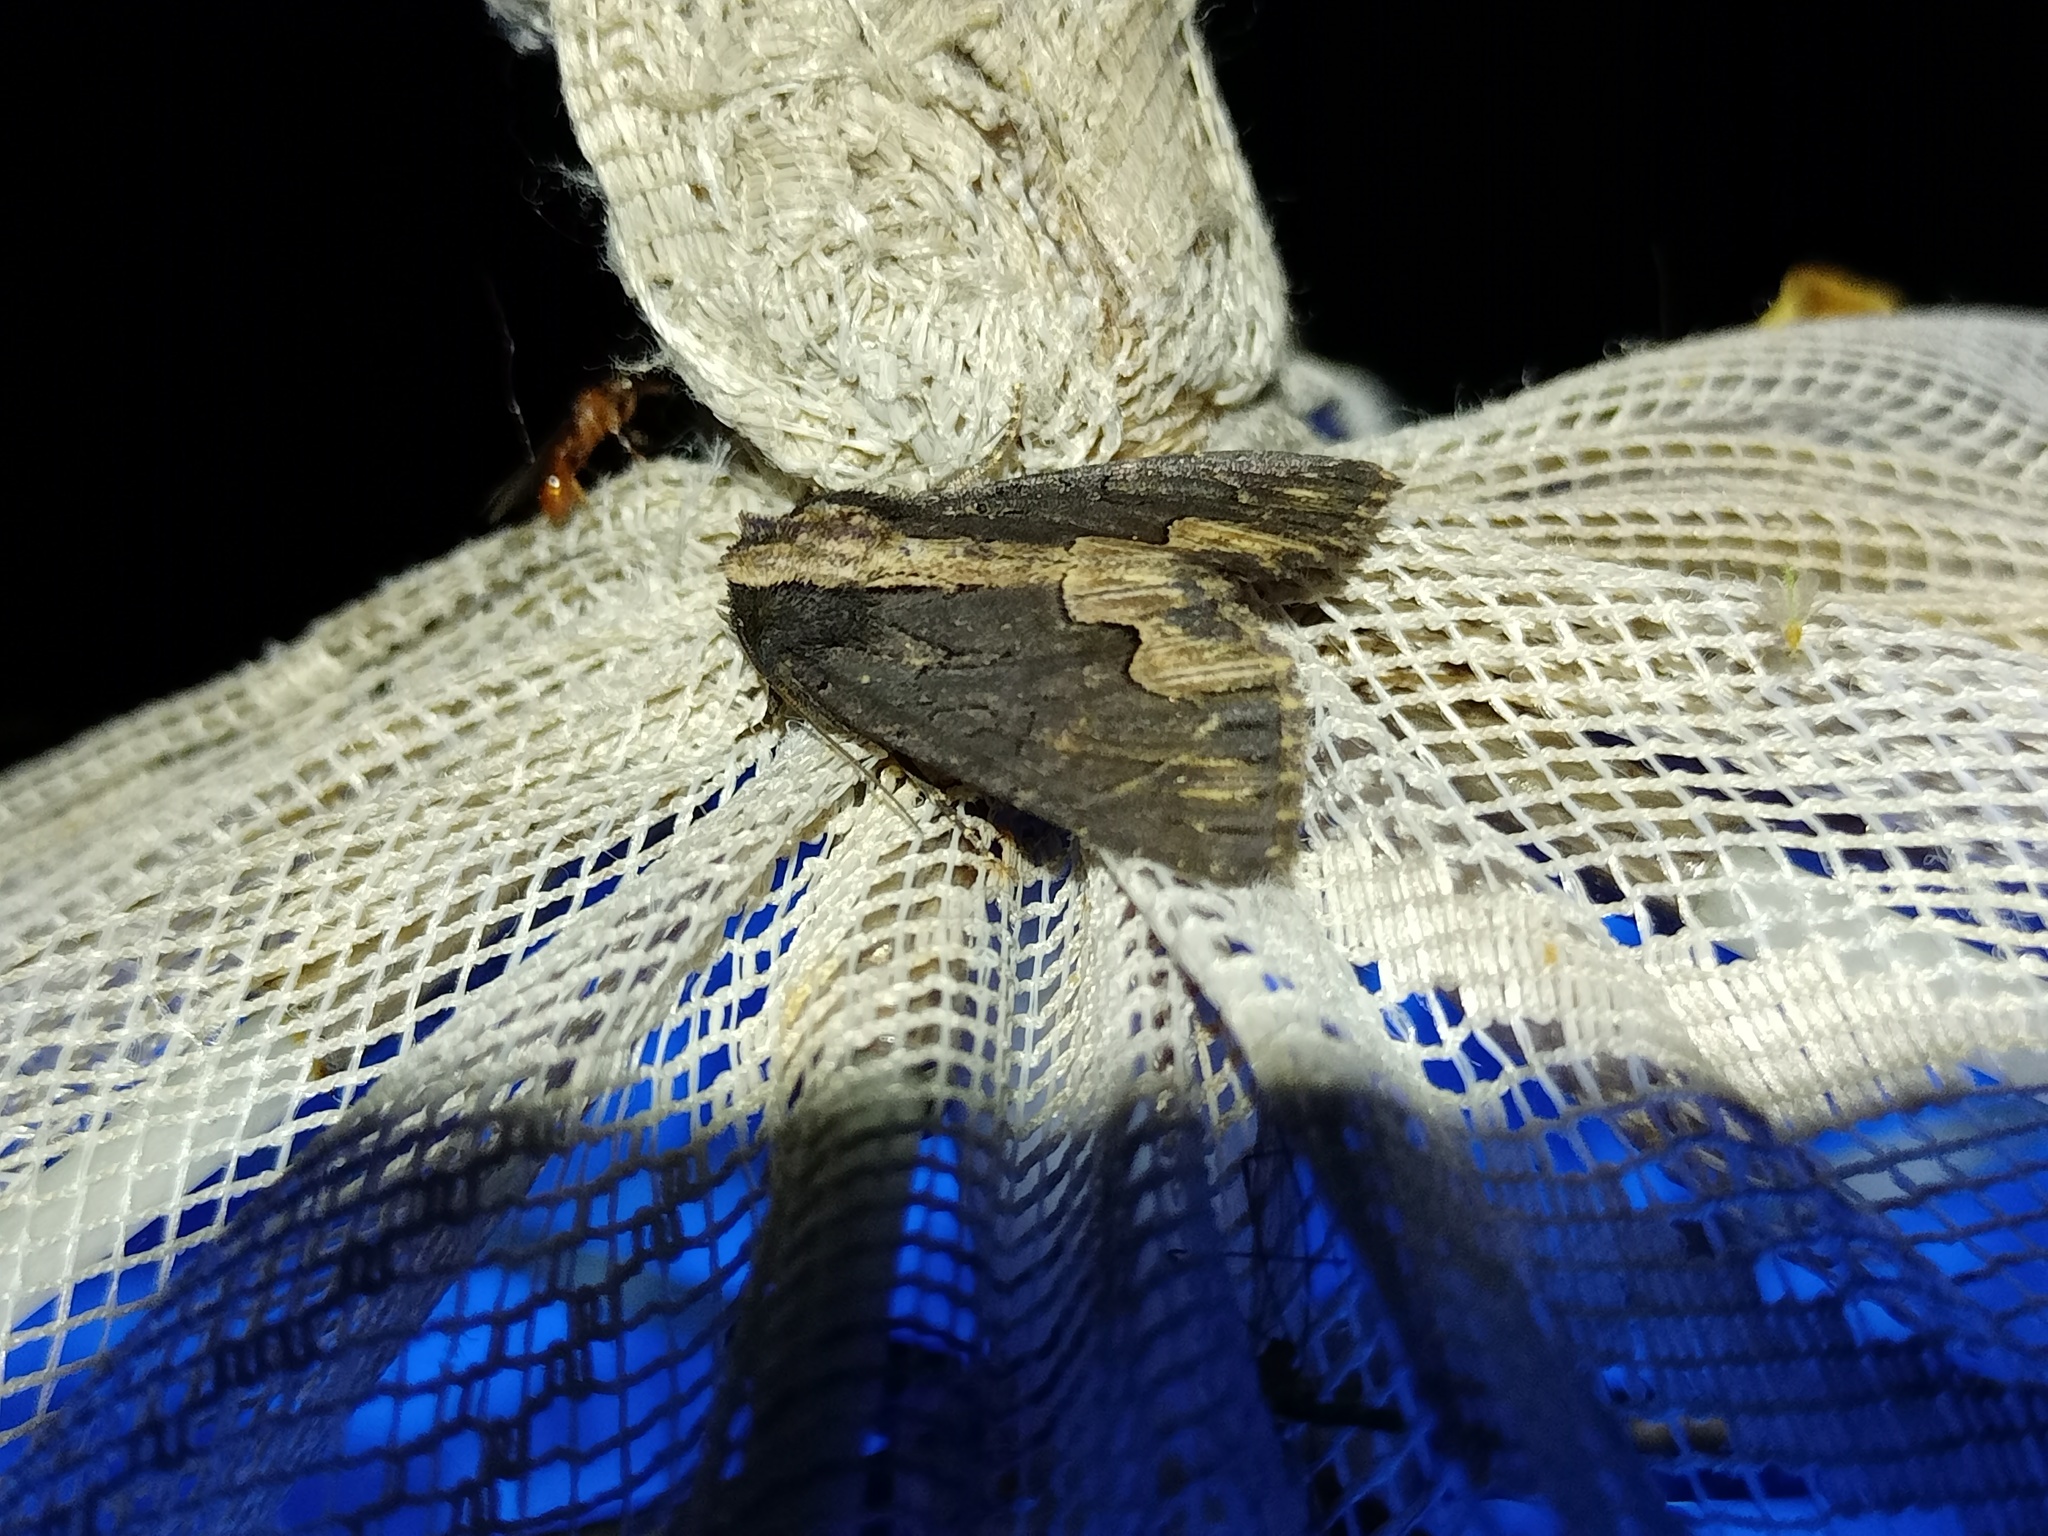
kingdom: Animalia
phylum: Arthropoda
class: Insecta
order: Lepidoptera
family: Noctuidae
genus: Dypterygia
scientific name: Dypterygia scabriuscula
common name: Bird's wing
